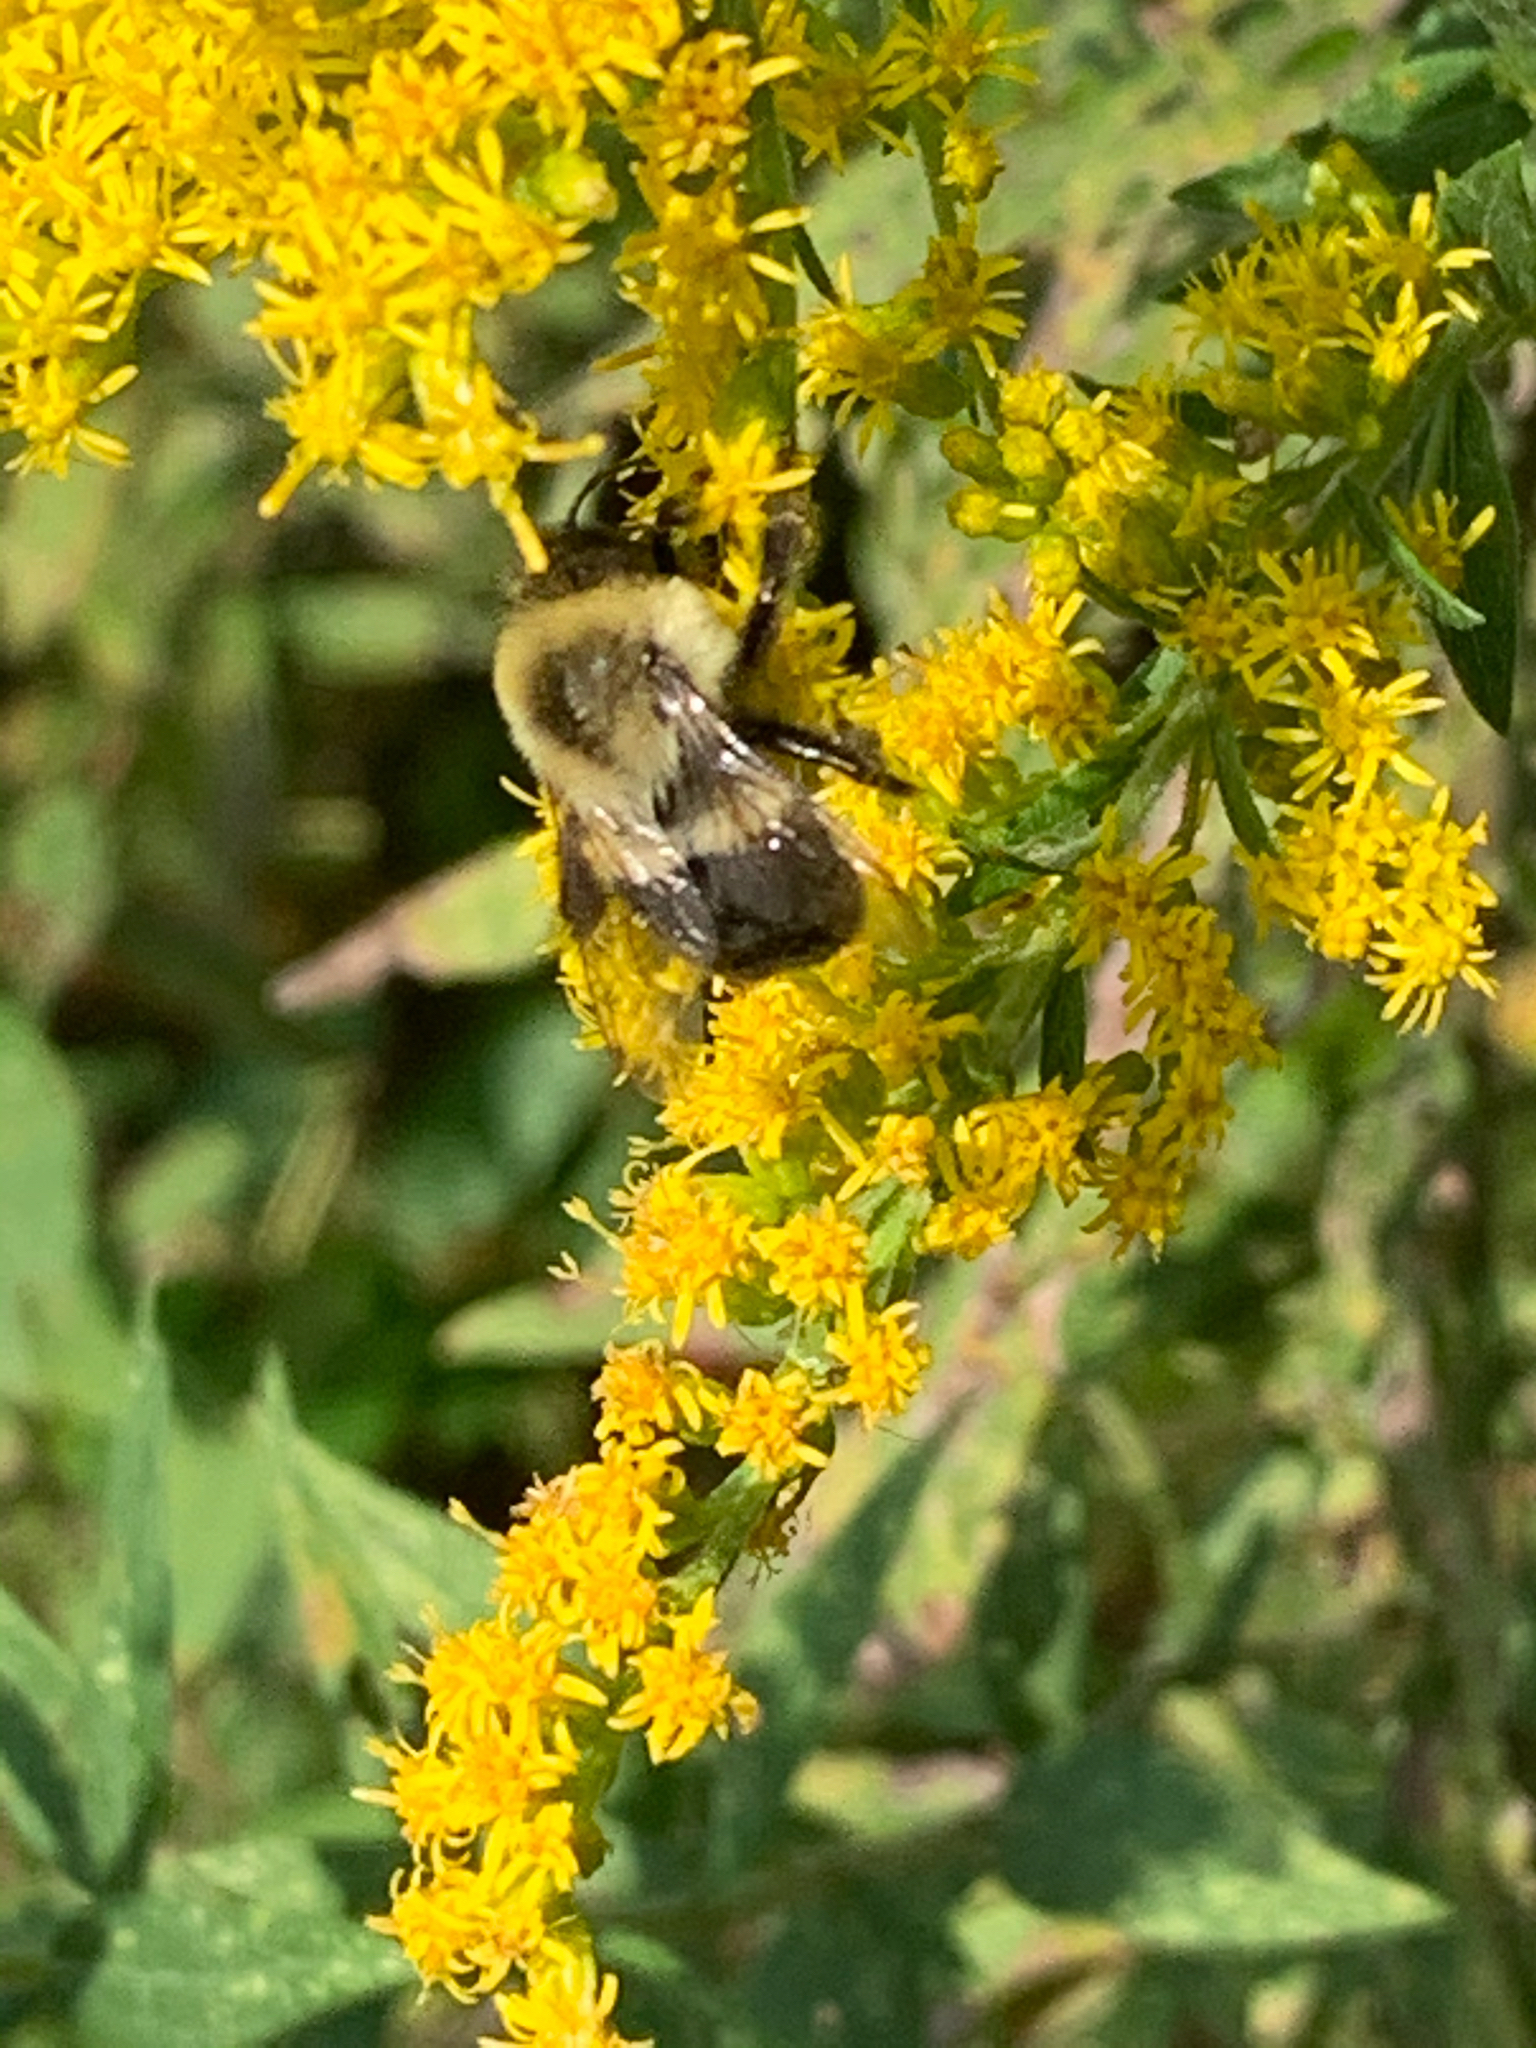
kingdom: Animalia
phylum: Arthropoda
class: Insecta
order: Hymenoptera
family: Apidae
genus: Bombus
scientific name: Bombus impatiens
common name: Common eastern bumble bee
